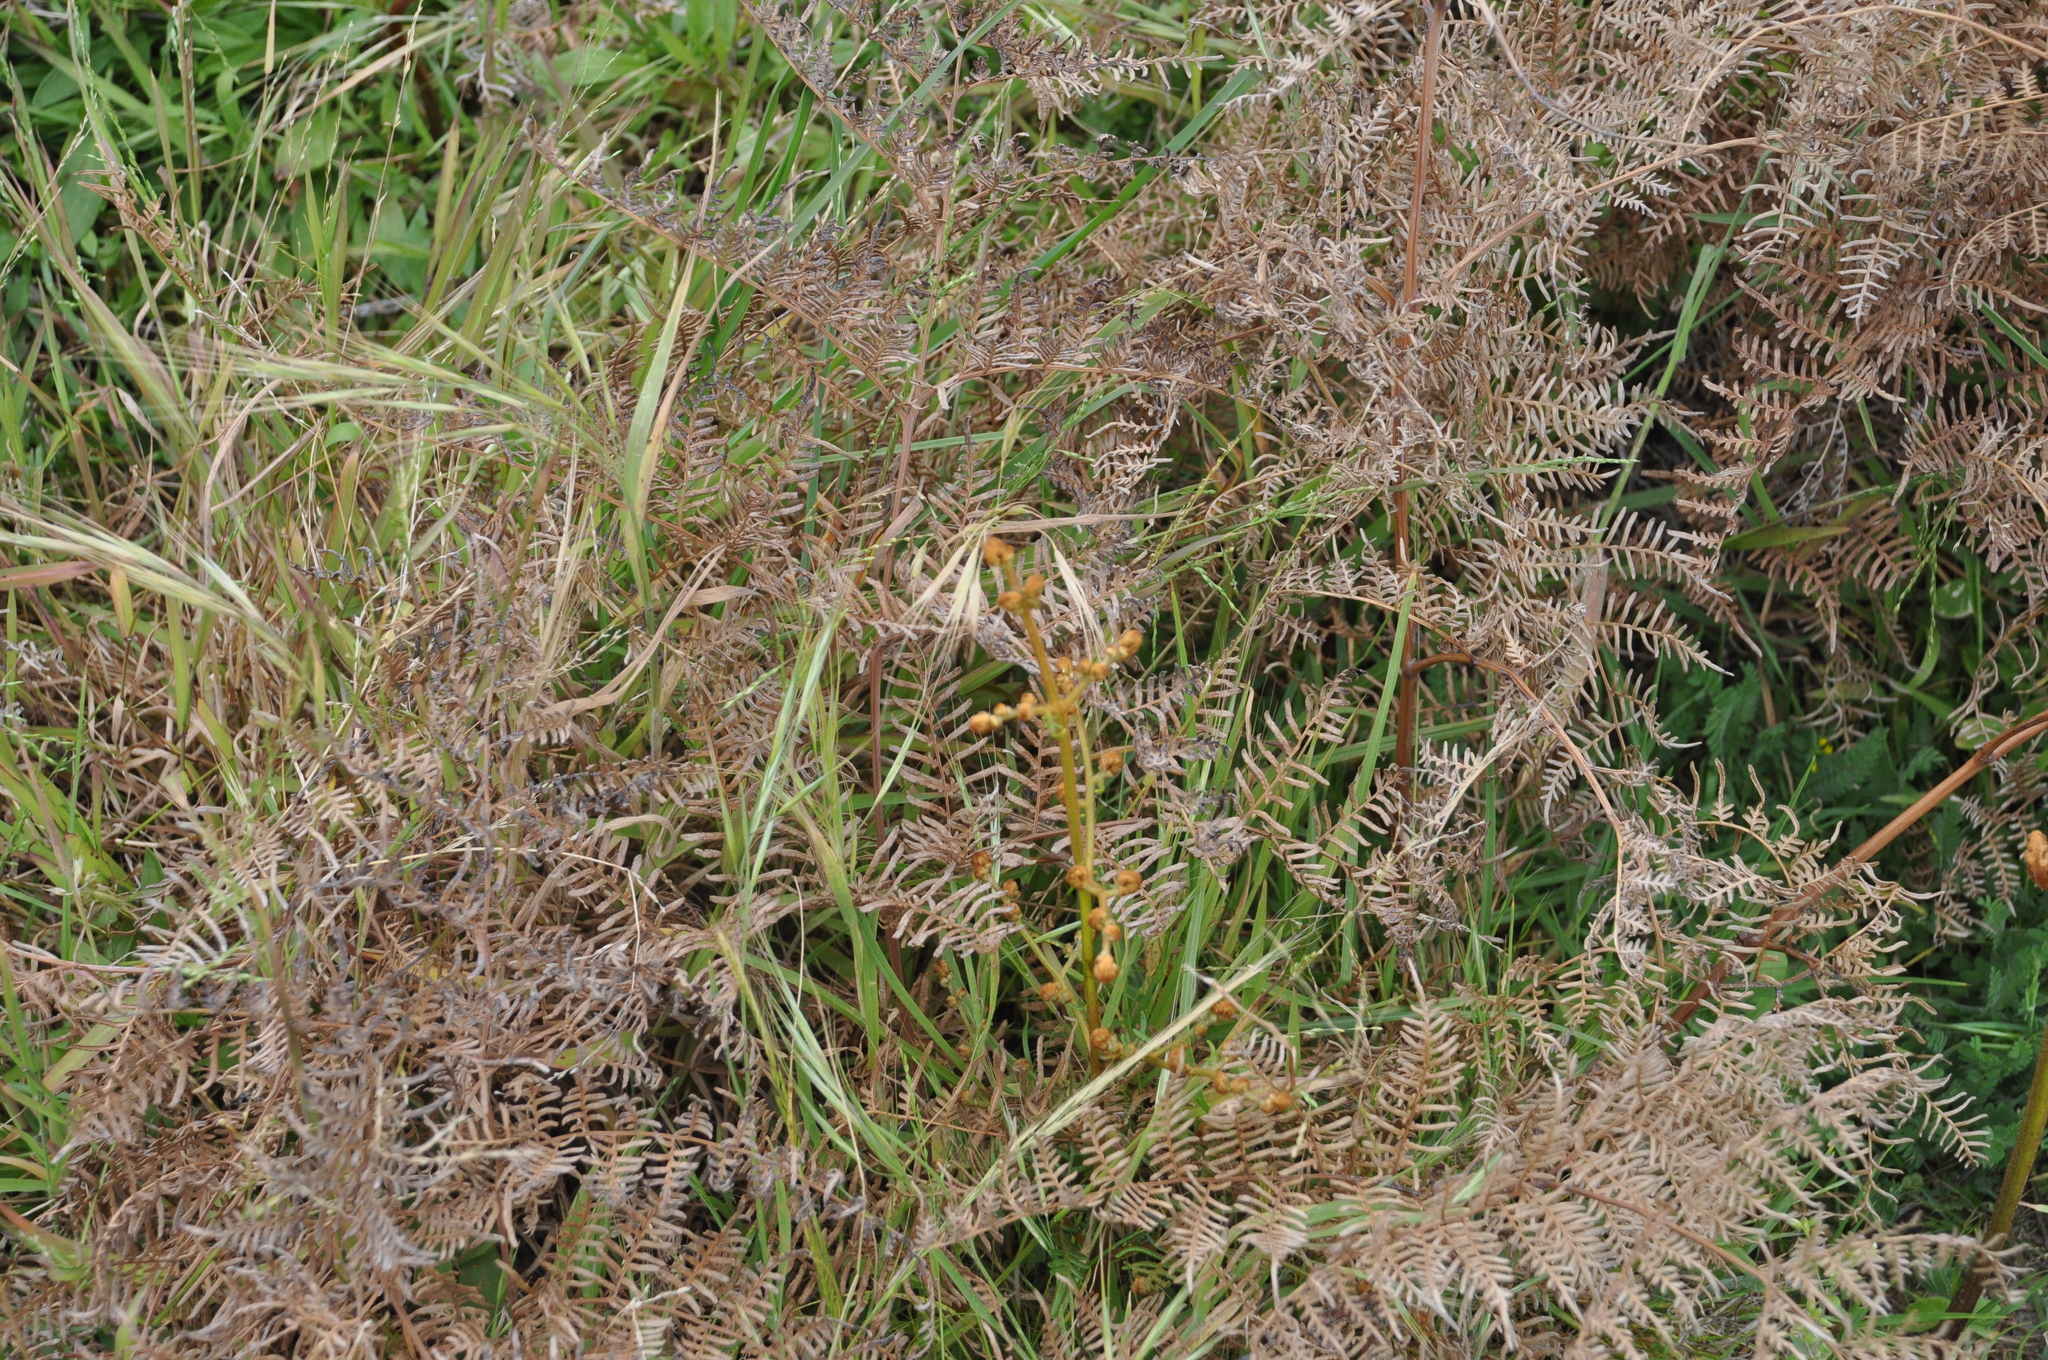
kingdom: Plantae
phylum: Tracheophyta
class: Polypodiopsida
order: Polypodiales
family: Dennstaedtiaceae
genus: Pteridium
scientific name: Pteridium esculentum
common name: Bracken fern
